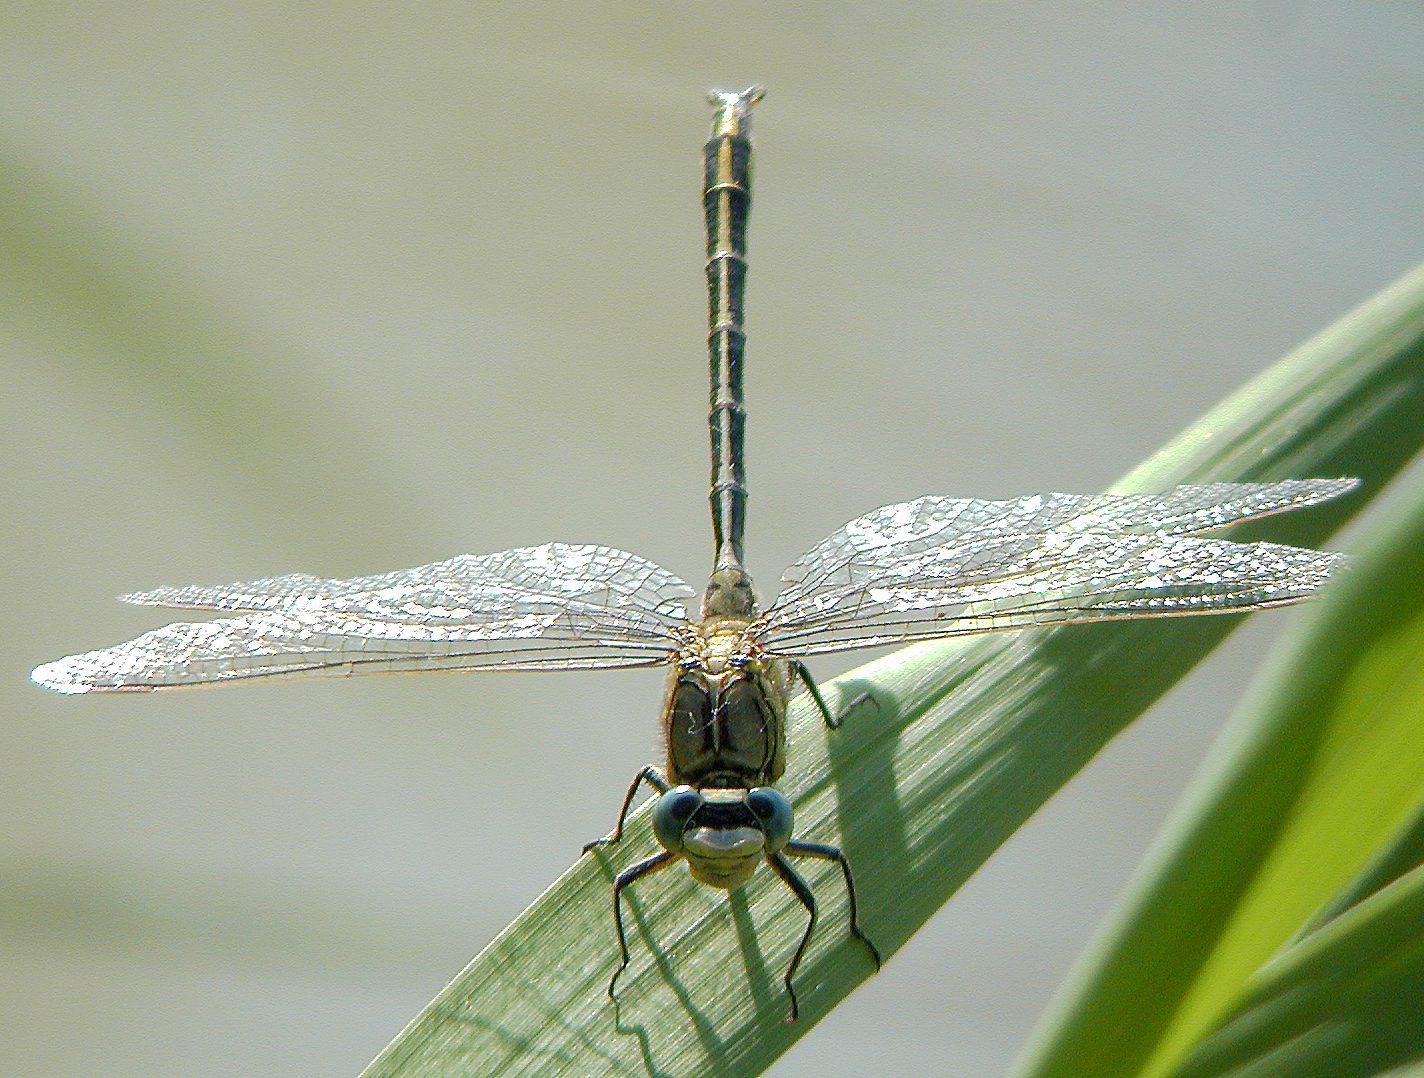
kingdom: Animalia
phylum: Arthropoda
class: Insecta
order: Odonata
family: Gomphidae
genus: Gomphus
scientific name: Gomphus pulchellus
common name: Western clubtail
